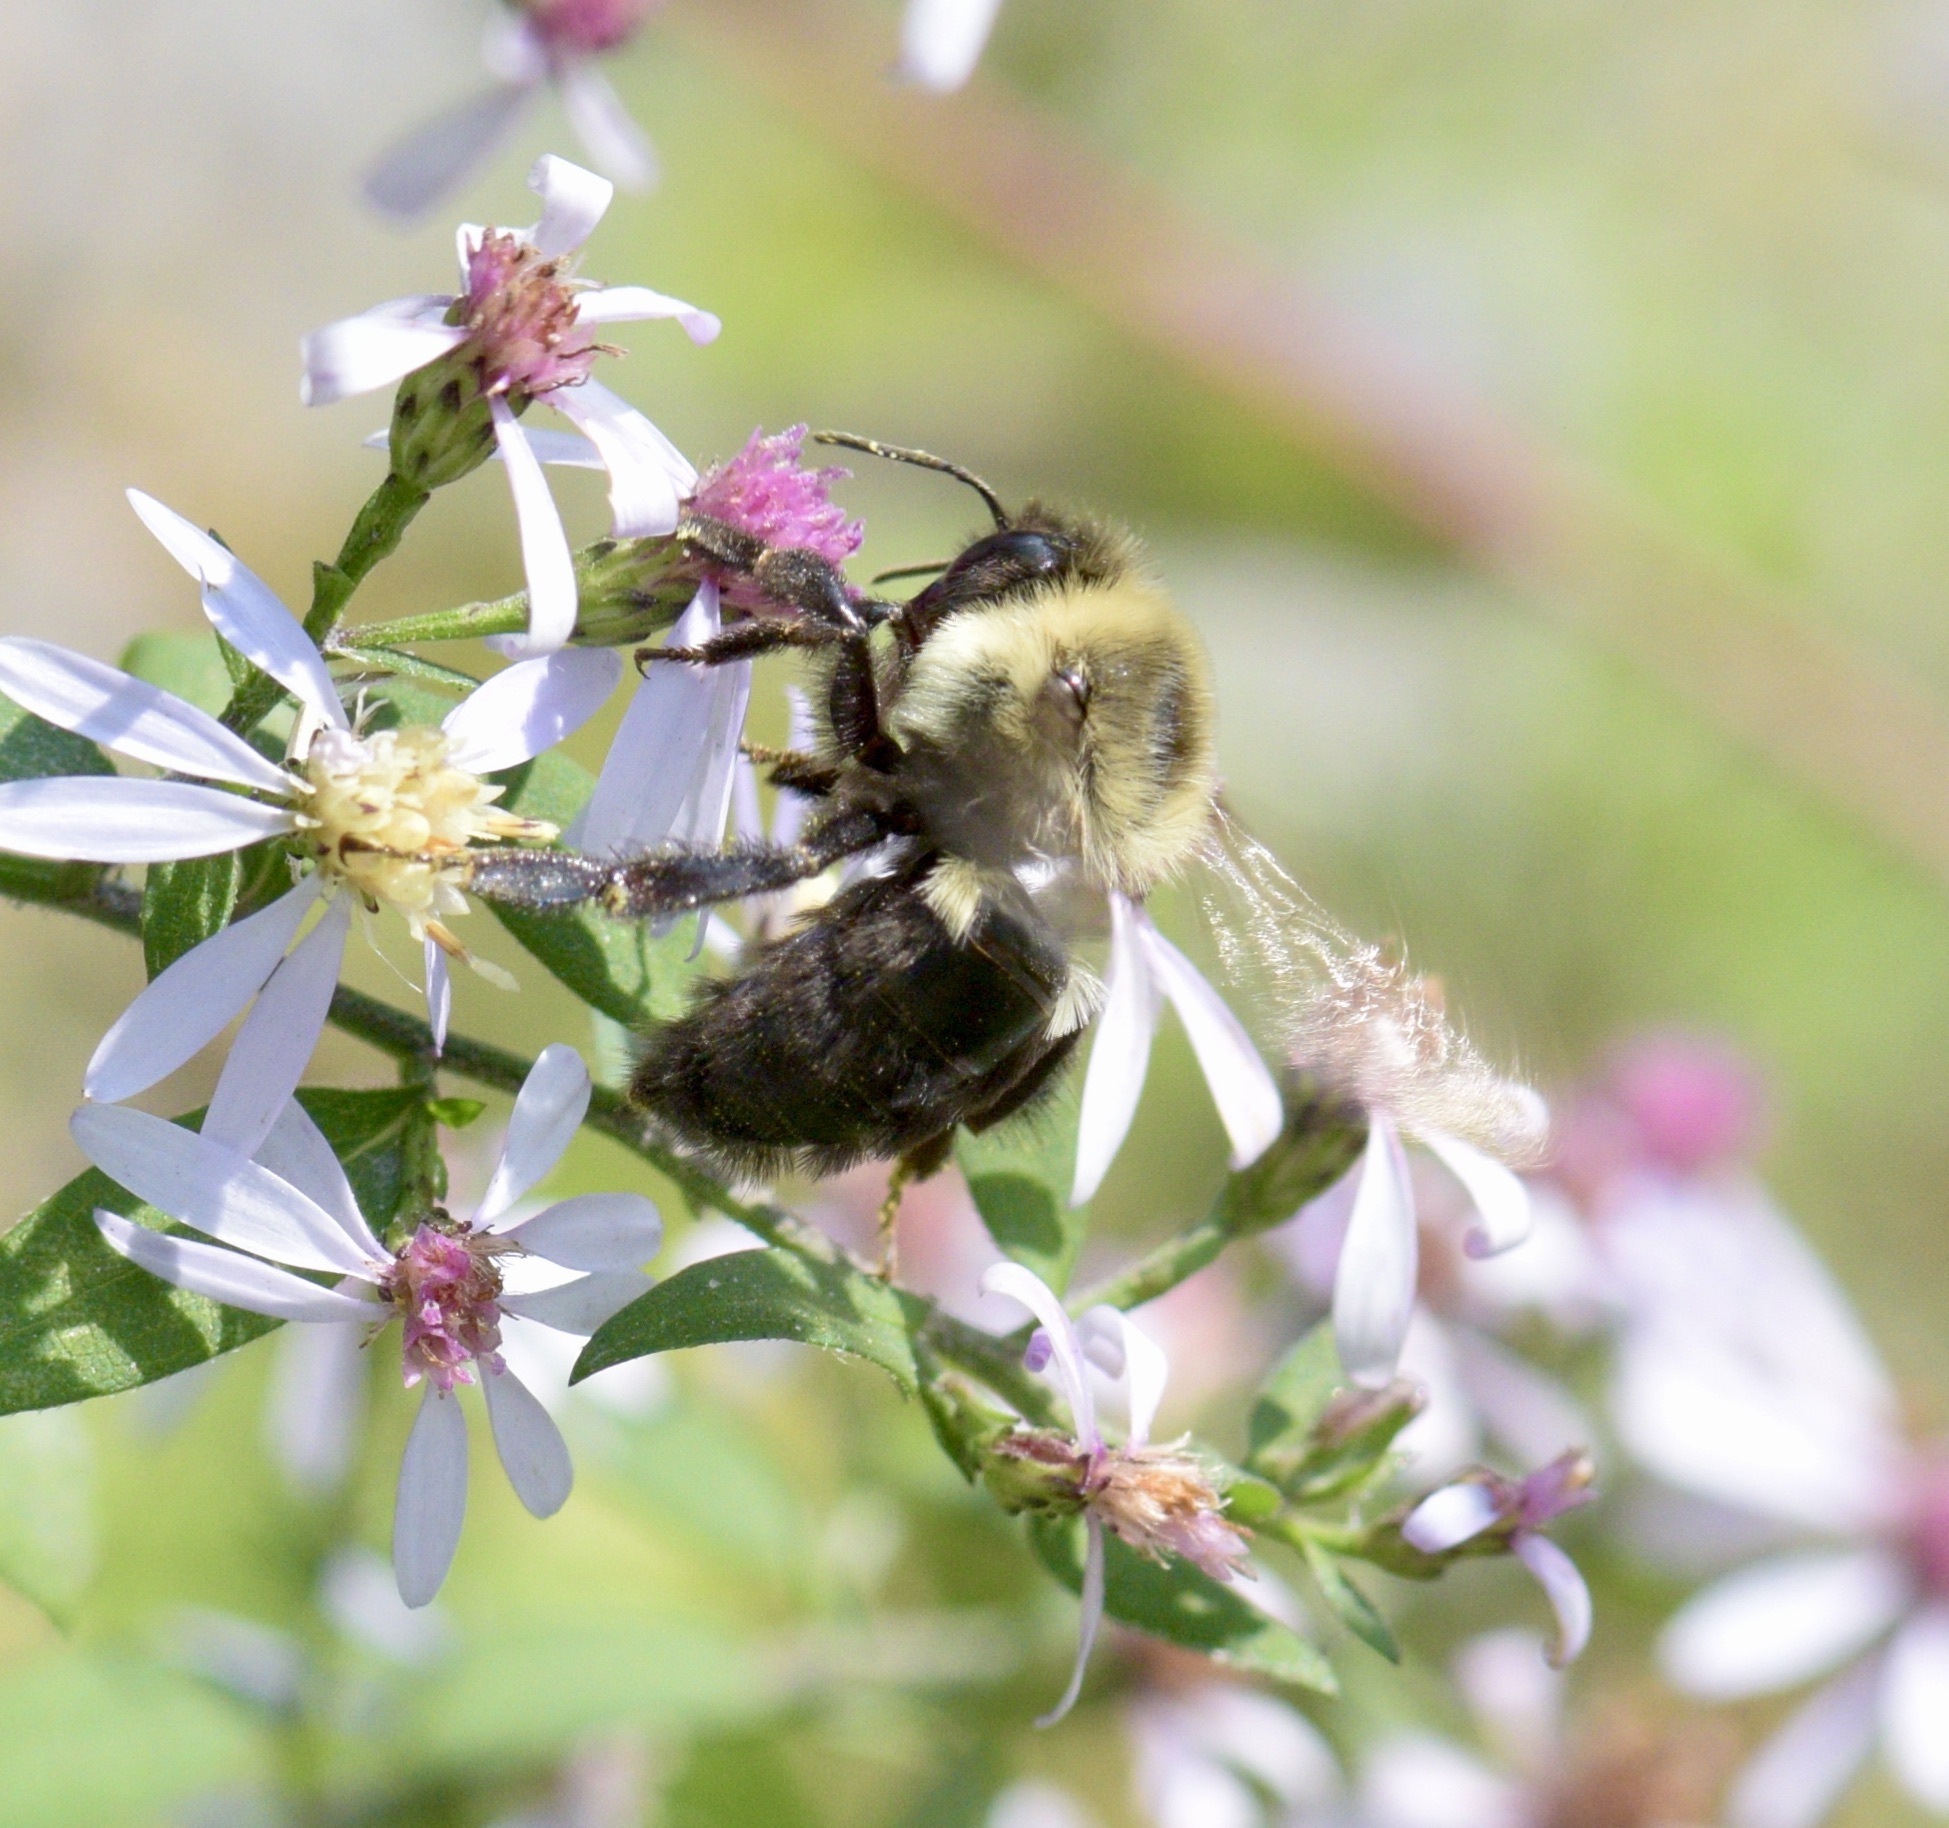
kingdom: Animalia
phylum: Arthropoda
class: Insecta
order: Hymenoptera
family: Apidae
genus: Bombus
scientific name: Bombus impatiens
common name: Common eastern bumble bee
